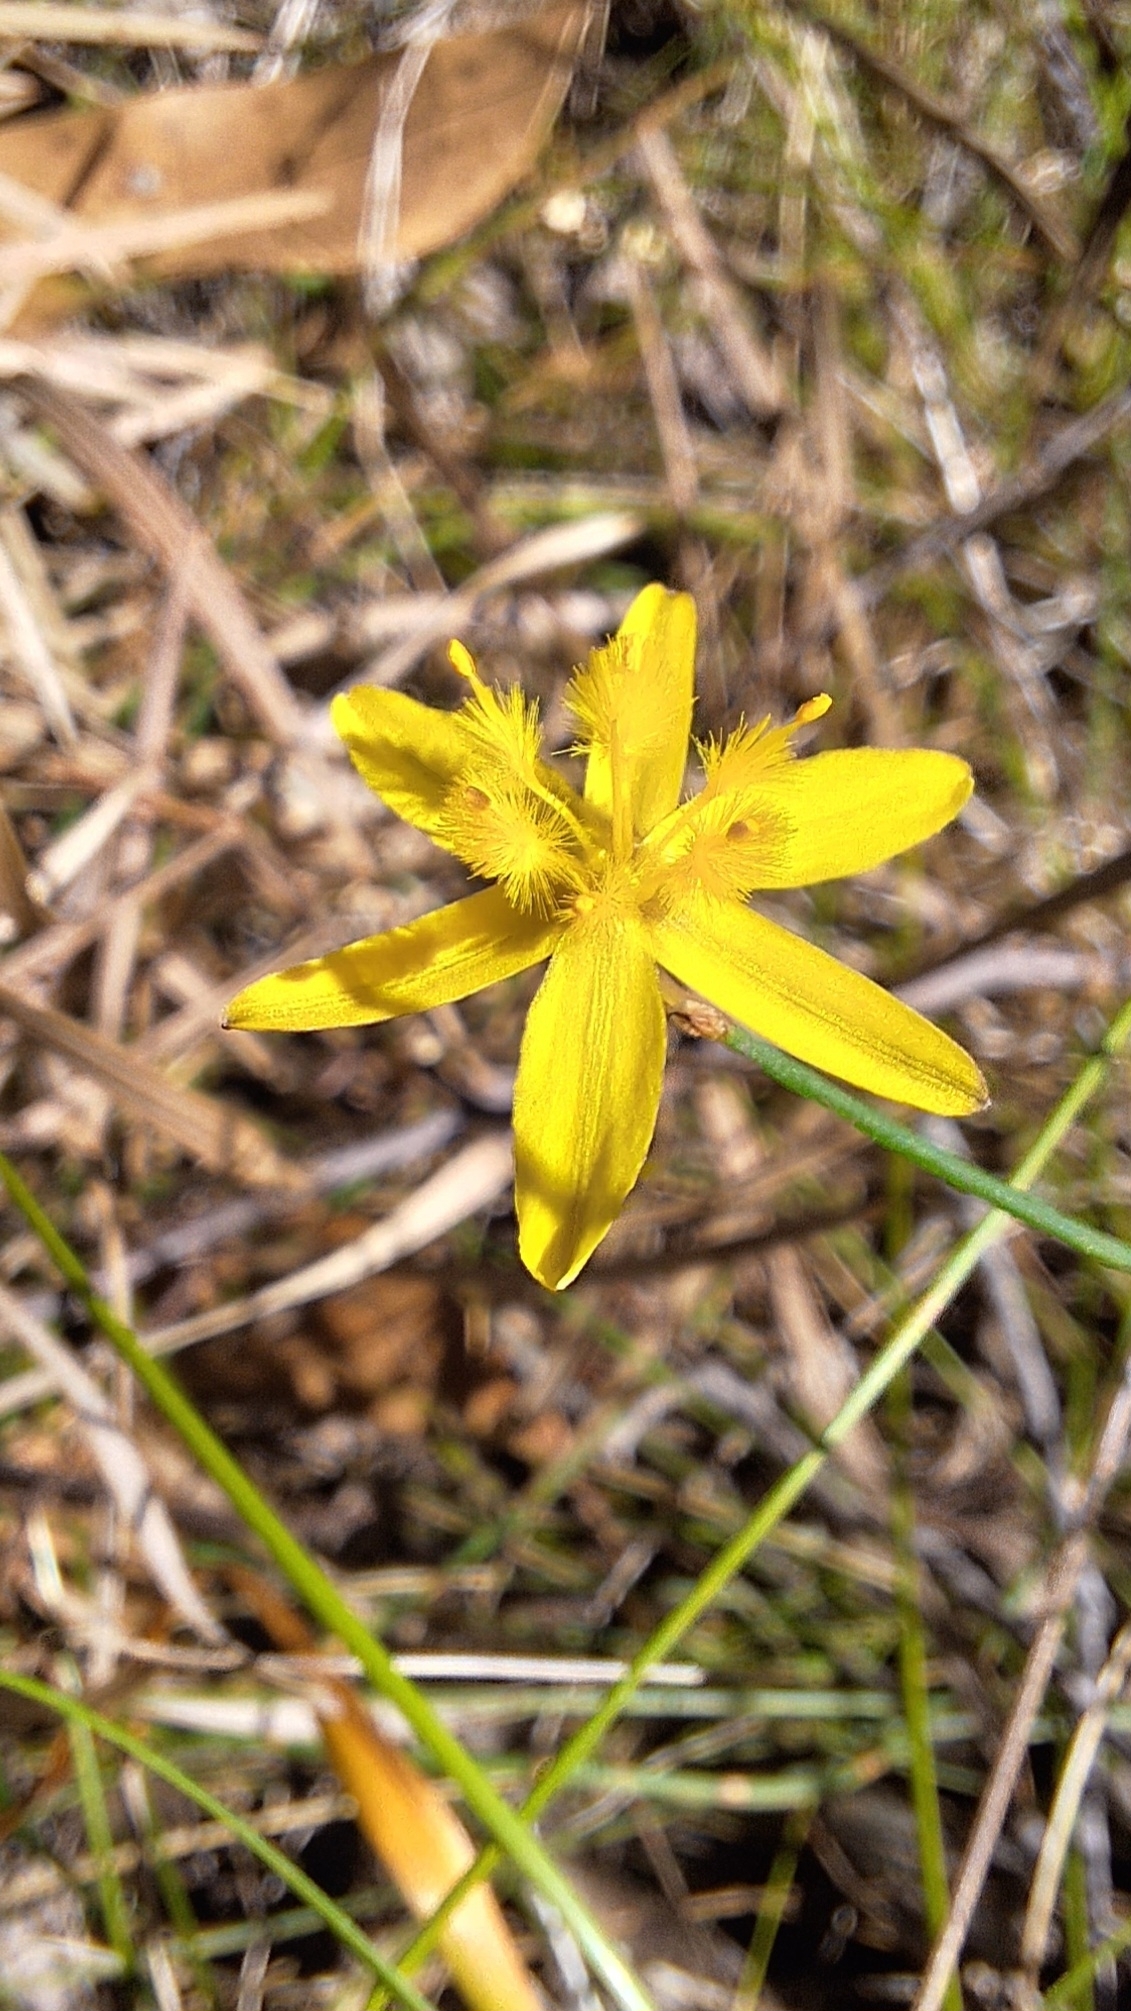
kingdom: Plantae
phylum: Tracheophyta
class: Liliopsida
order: Asparagales
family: Asphodelaceae
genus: Tricoryne
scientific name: Tricoryne elatior
